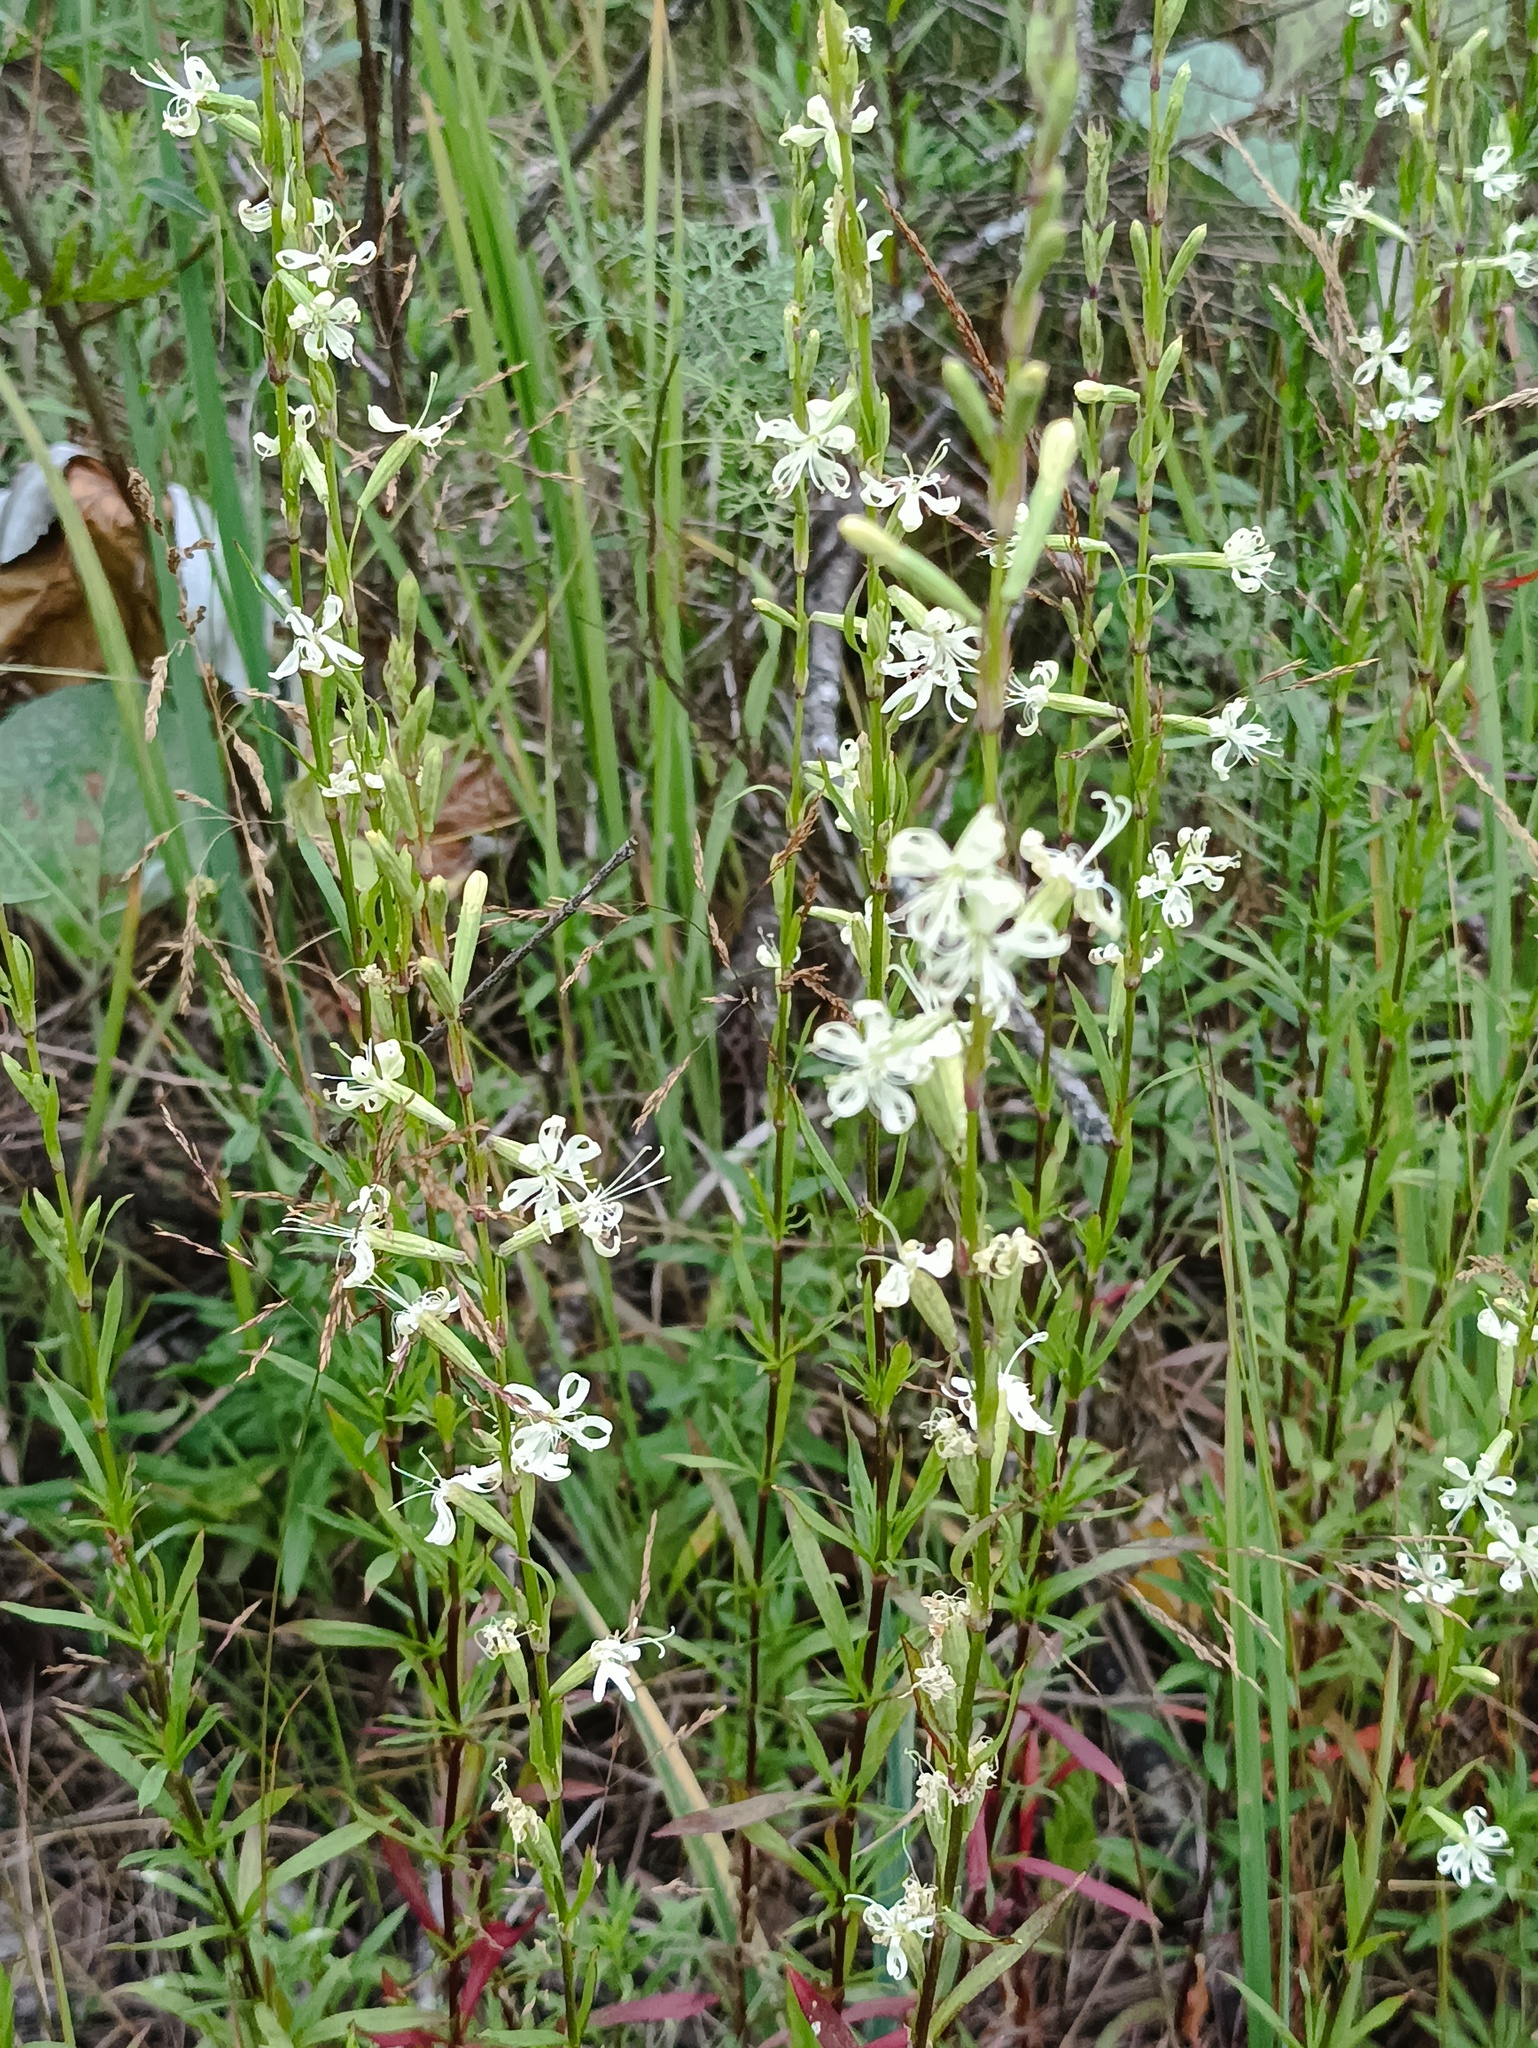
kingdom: Plantae
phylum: Tracheophyta
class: Magnoliopsida
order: Caryophyllales
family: Caryophyllaceae
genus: Silene
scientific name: Silene tatarica
